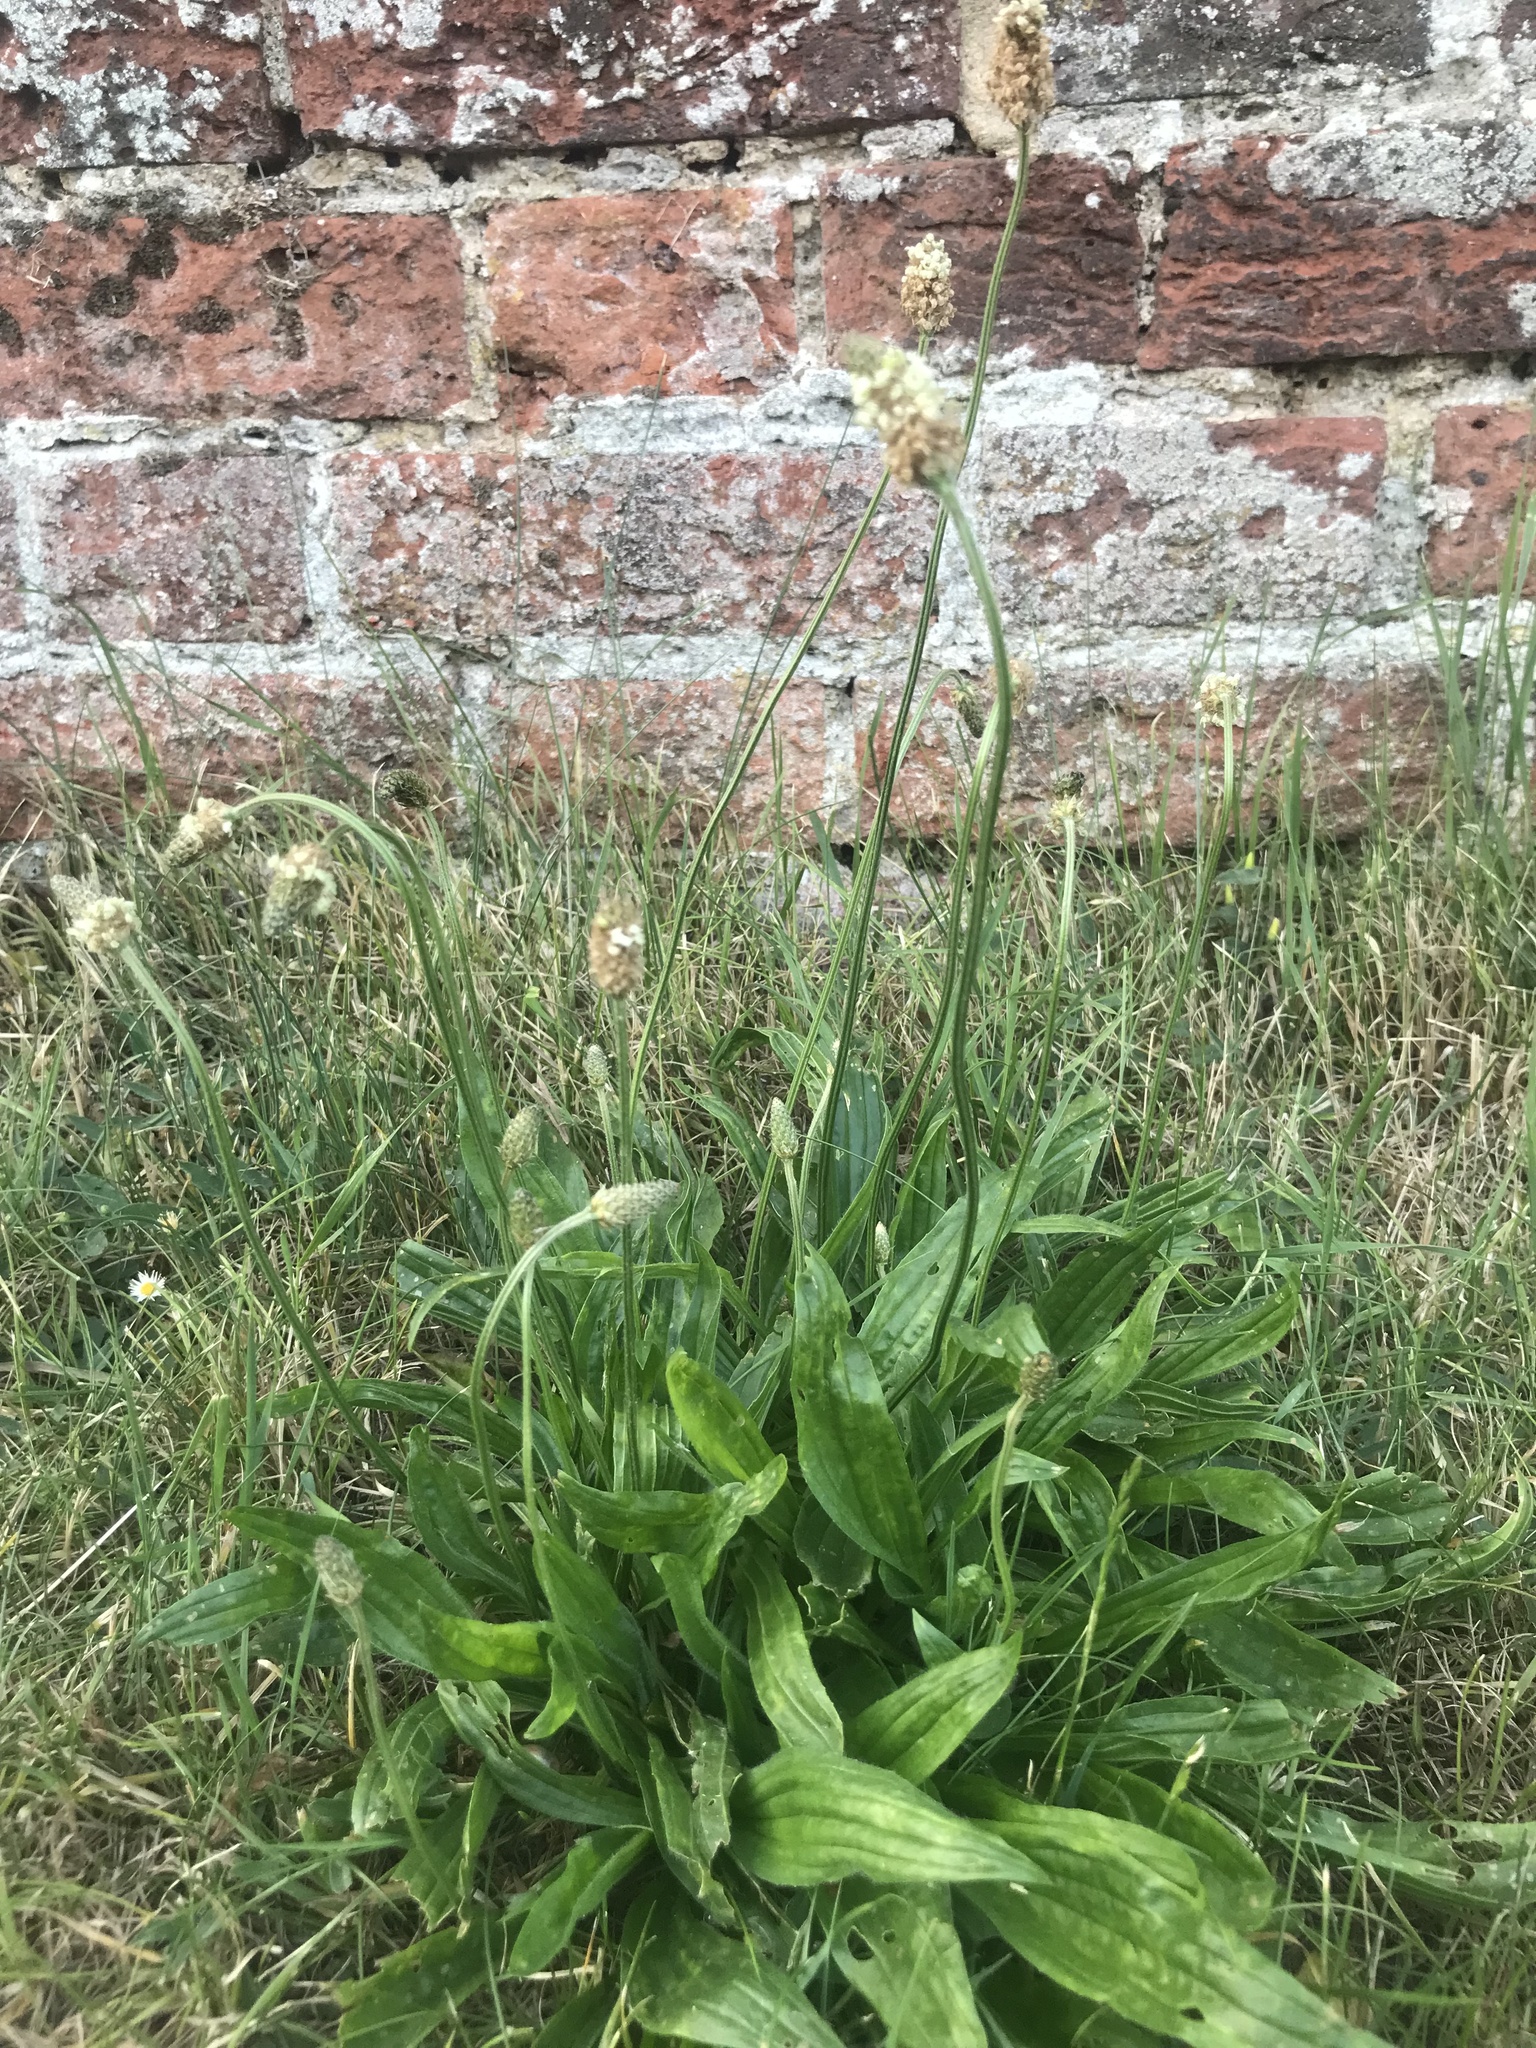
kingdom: Plantae
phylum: Tracheophyta
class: Magnoliopsida
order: Lamiales
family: Plantaginaceae
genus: Plantago
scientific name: Plantago lanceolata
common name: Ribwort plantain
